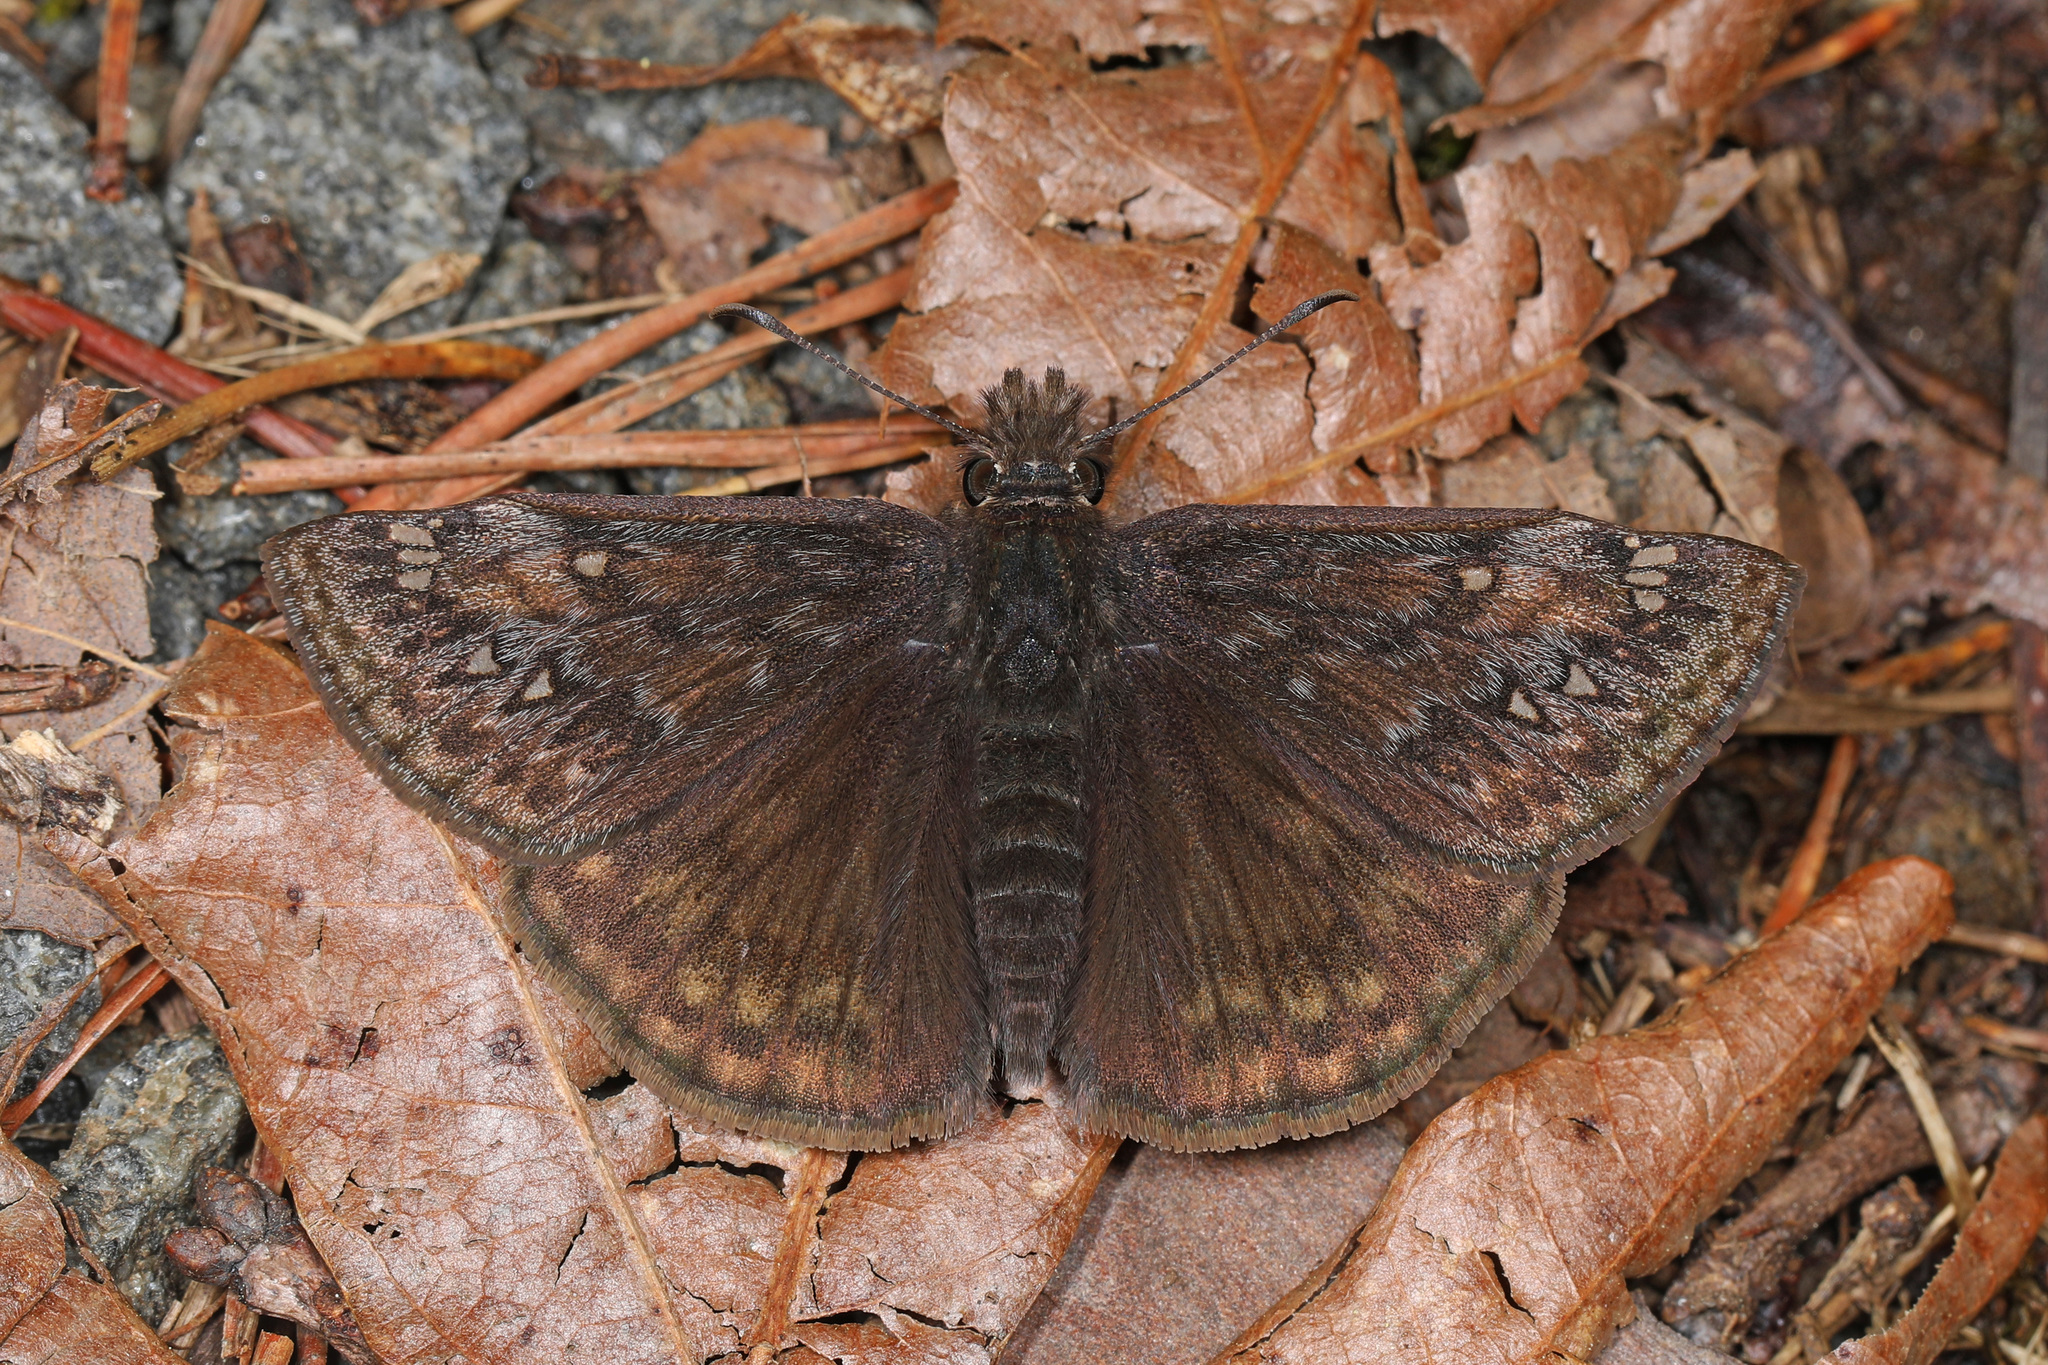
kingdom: Animalia
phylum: Arthropoda
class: Insecta
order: Lepidoptera
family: Hesperiidae
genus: Erynnis
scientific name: Erynnis juvenalis
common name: Juvenal's duskywing
